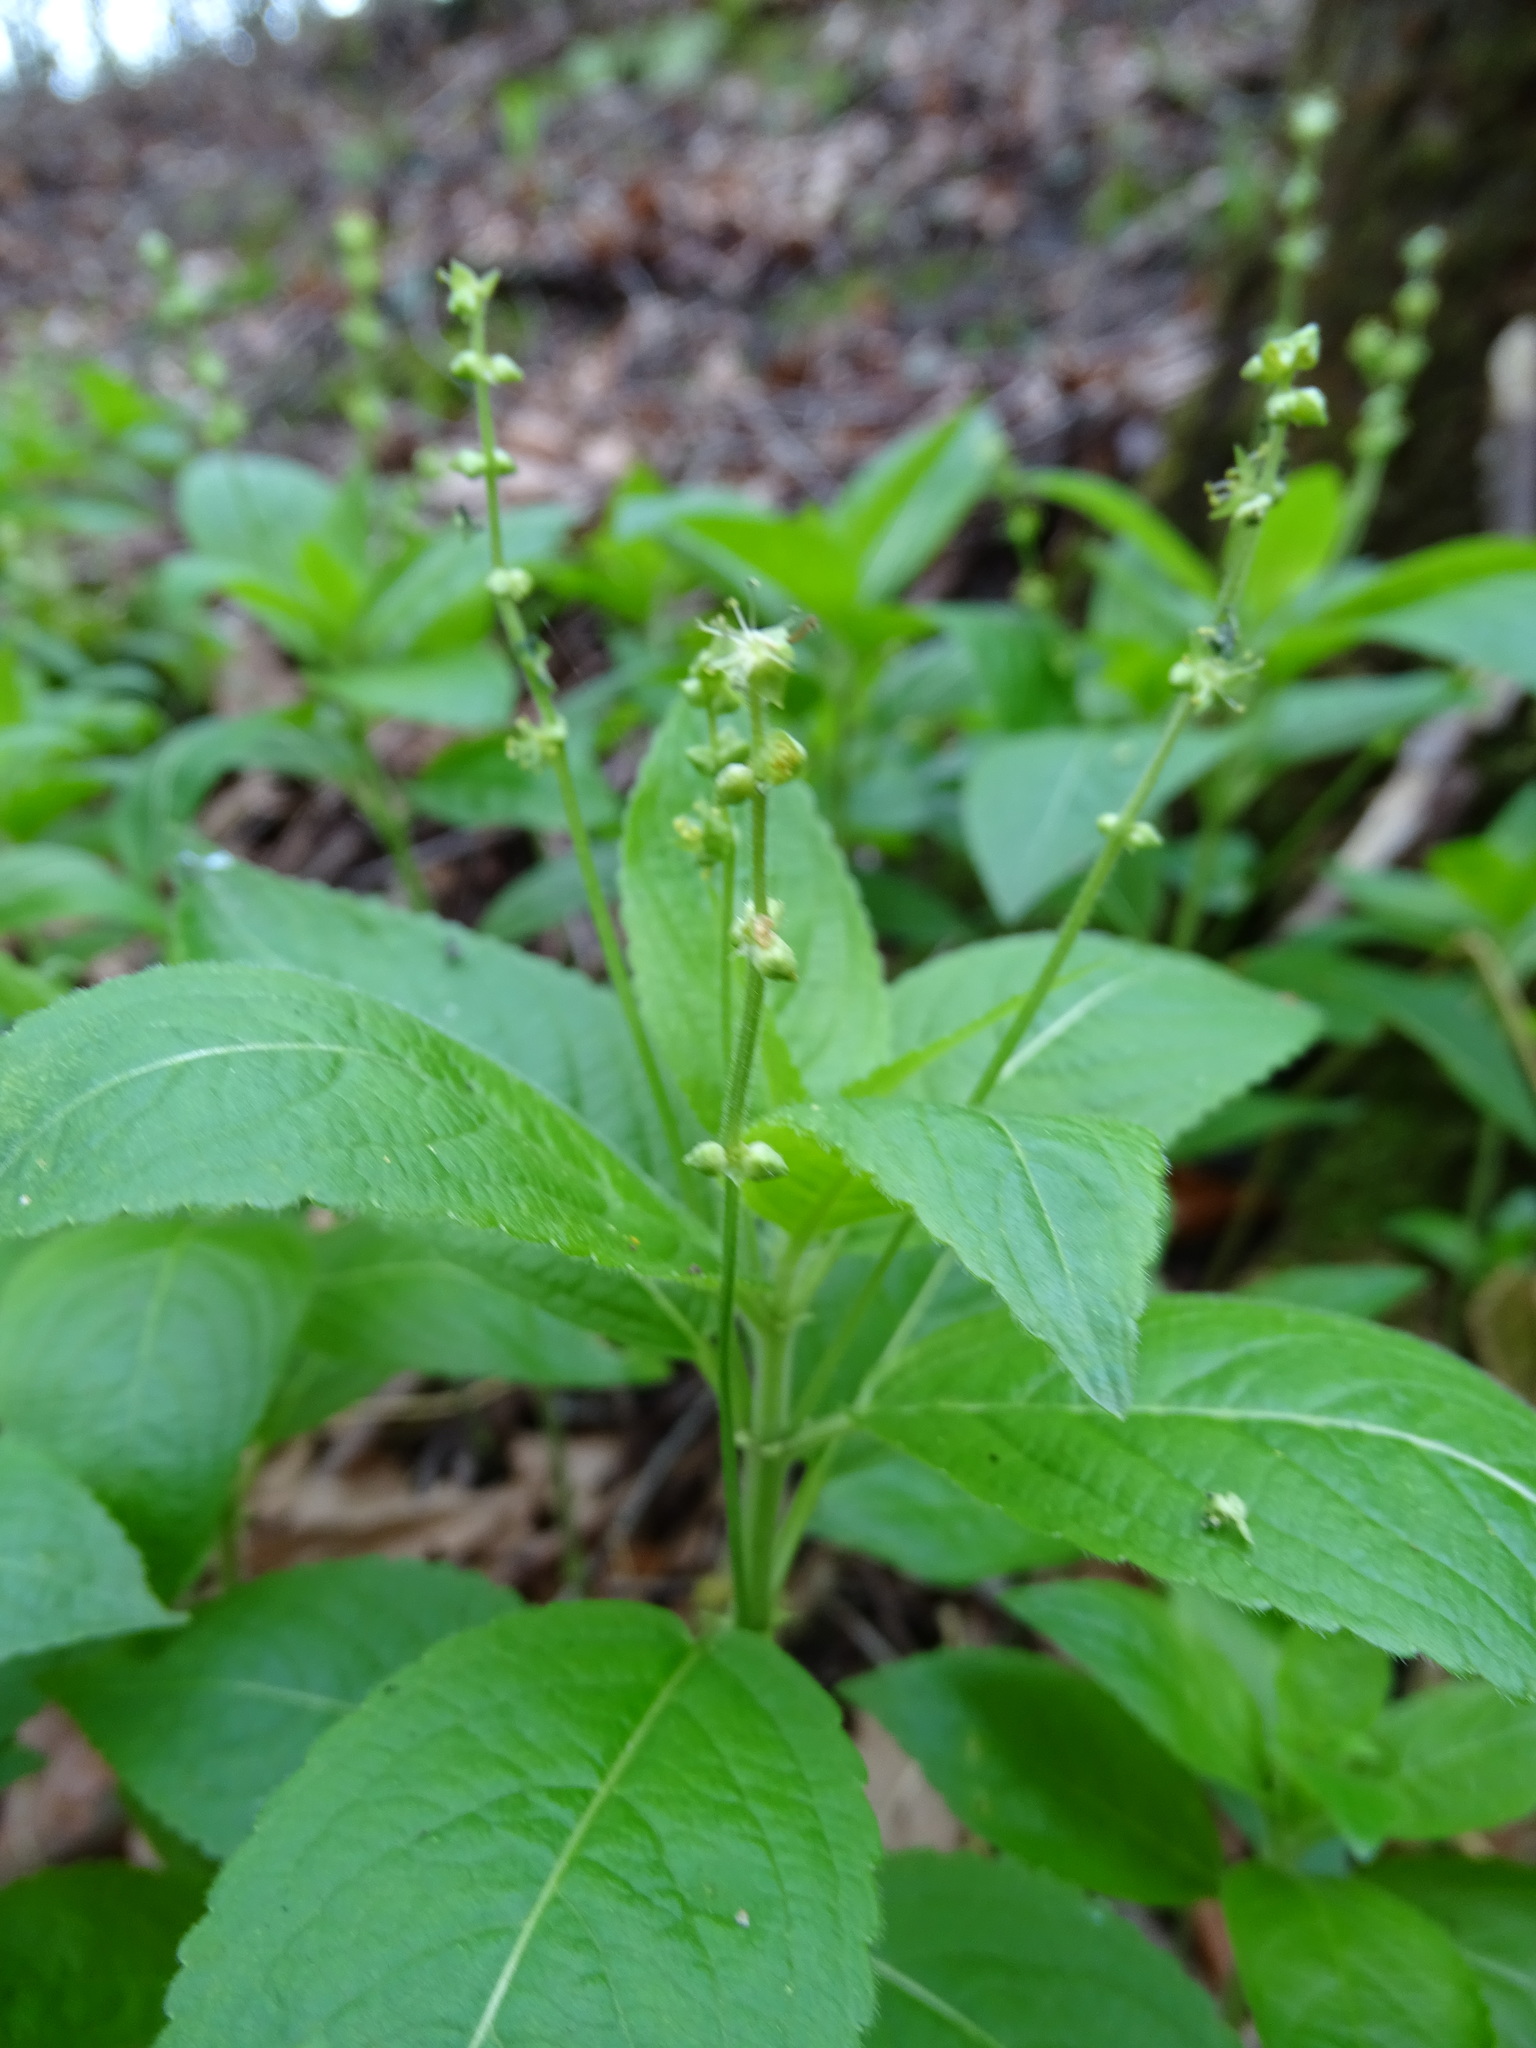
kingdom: Plantae
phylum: Tracheophyta
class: Magnoliopsida
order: Malpighiales
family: Euphorbiaceae
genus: Mercurialis
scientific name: Mercurialis perennis
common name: Dog mercury
